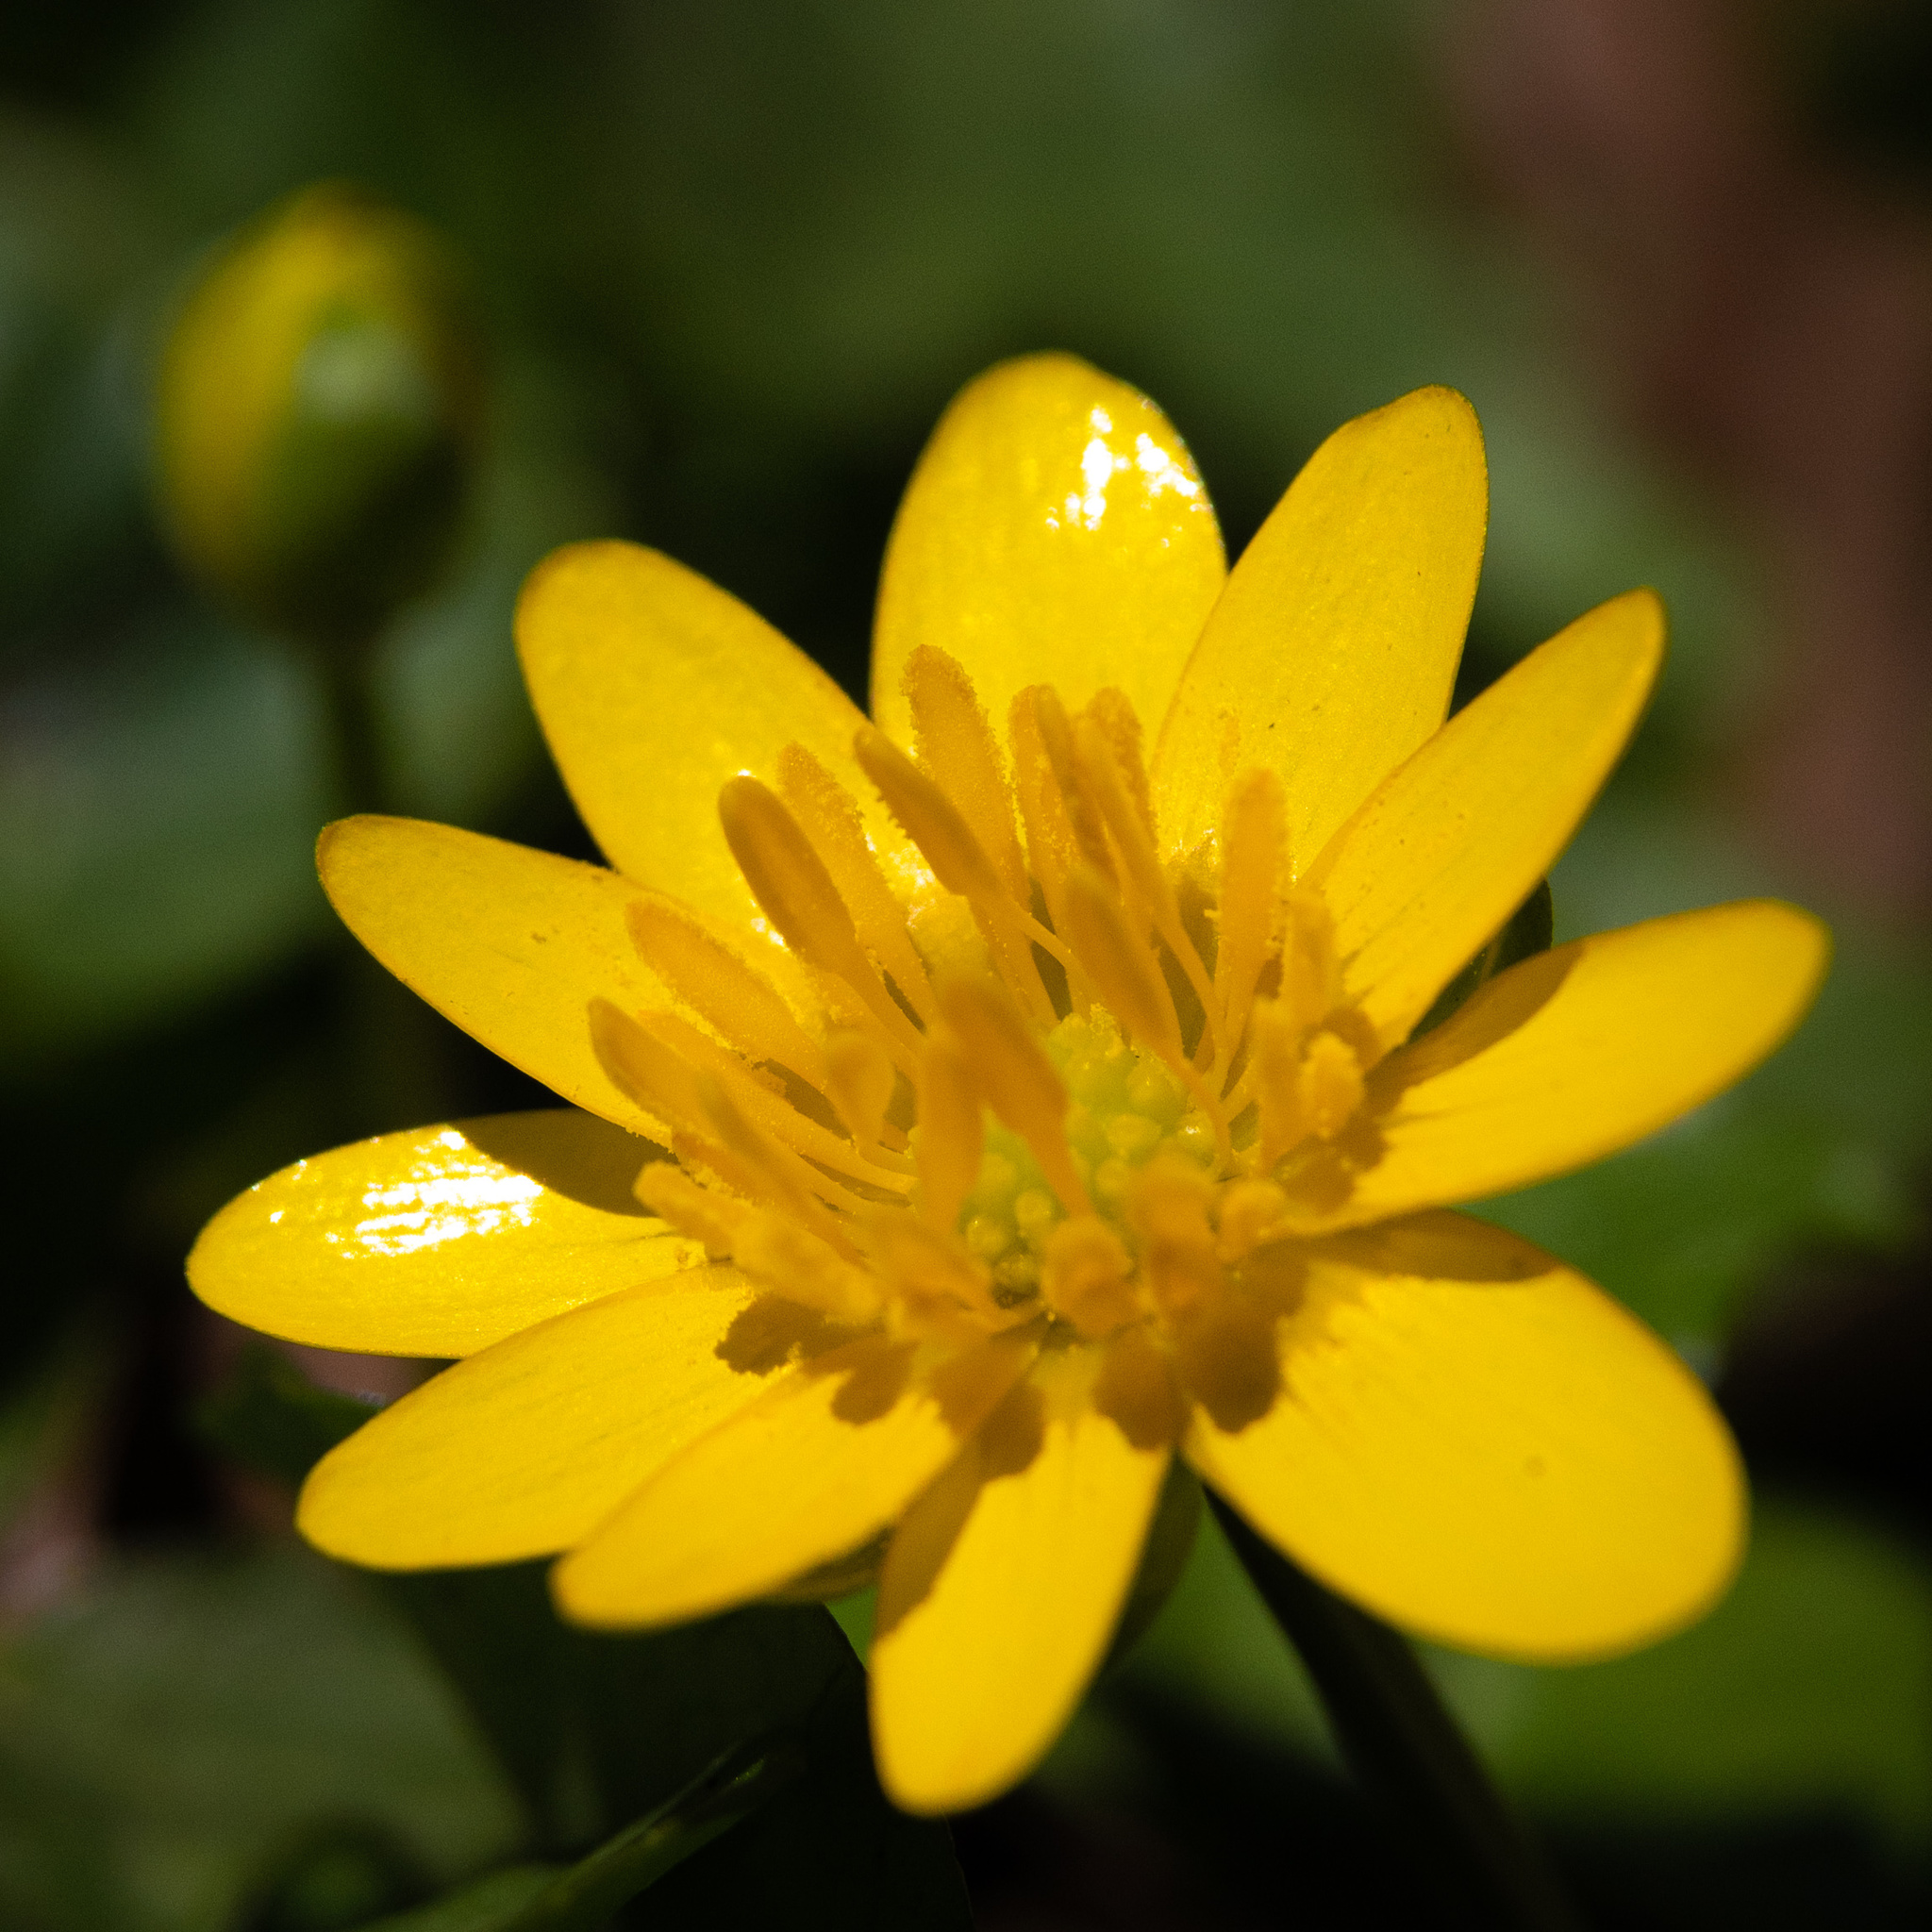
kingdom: Plantae
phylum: Tracheophyta
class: Magnoliopsida
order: Ranunculales
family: Ranunculaceae
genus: Ficaria
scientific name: Ficaria verna
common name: Lesser celandine
